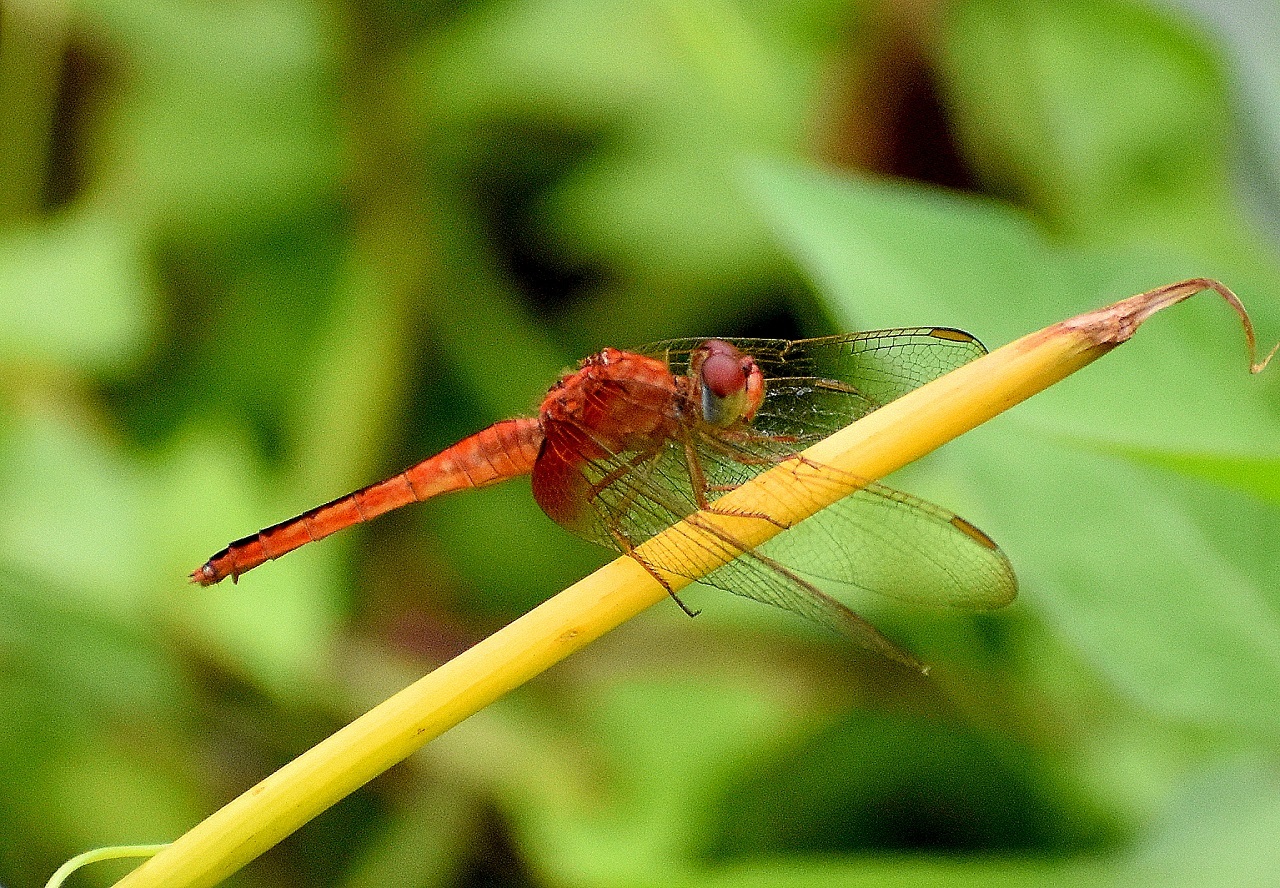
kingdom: Animalia
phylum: Arthropoda
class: Insecta
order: Odonata
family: Libellulidae
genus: Crocothemis
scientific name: Crocothemis servilia
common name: Scarlet skimmer
